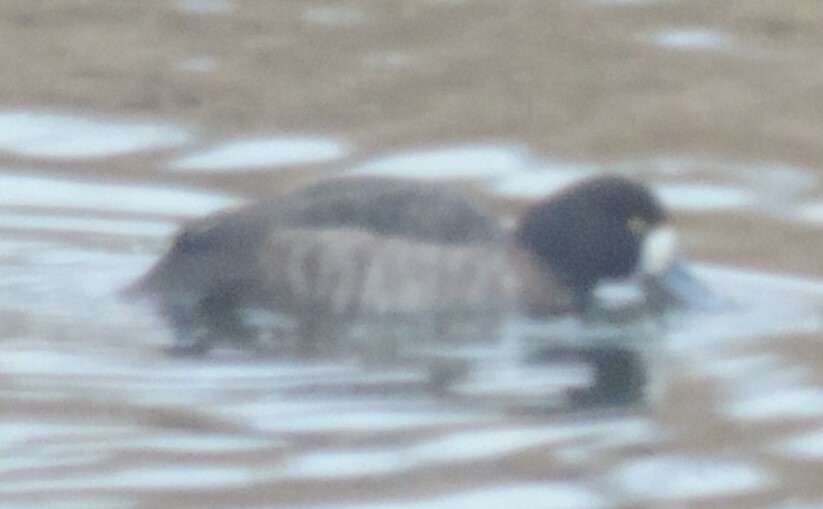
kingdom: Animalia
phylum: Chordata
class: Aves
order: Anseriformes
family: Anatidae
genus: Aythya
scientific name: Aythya marila
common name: Greater scaup
